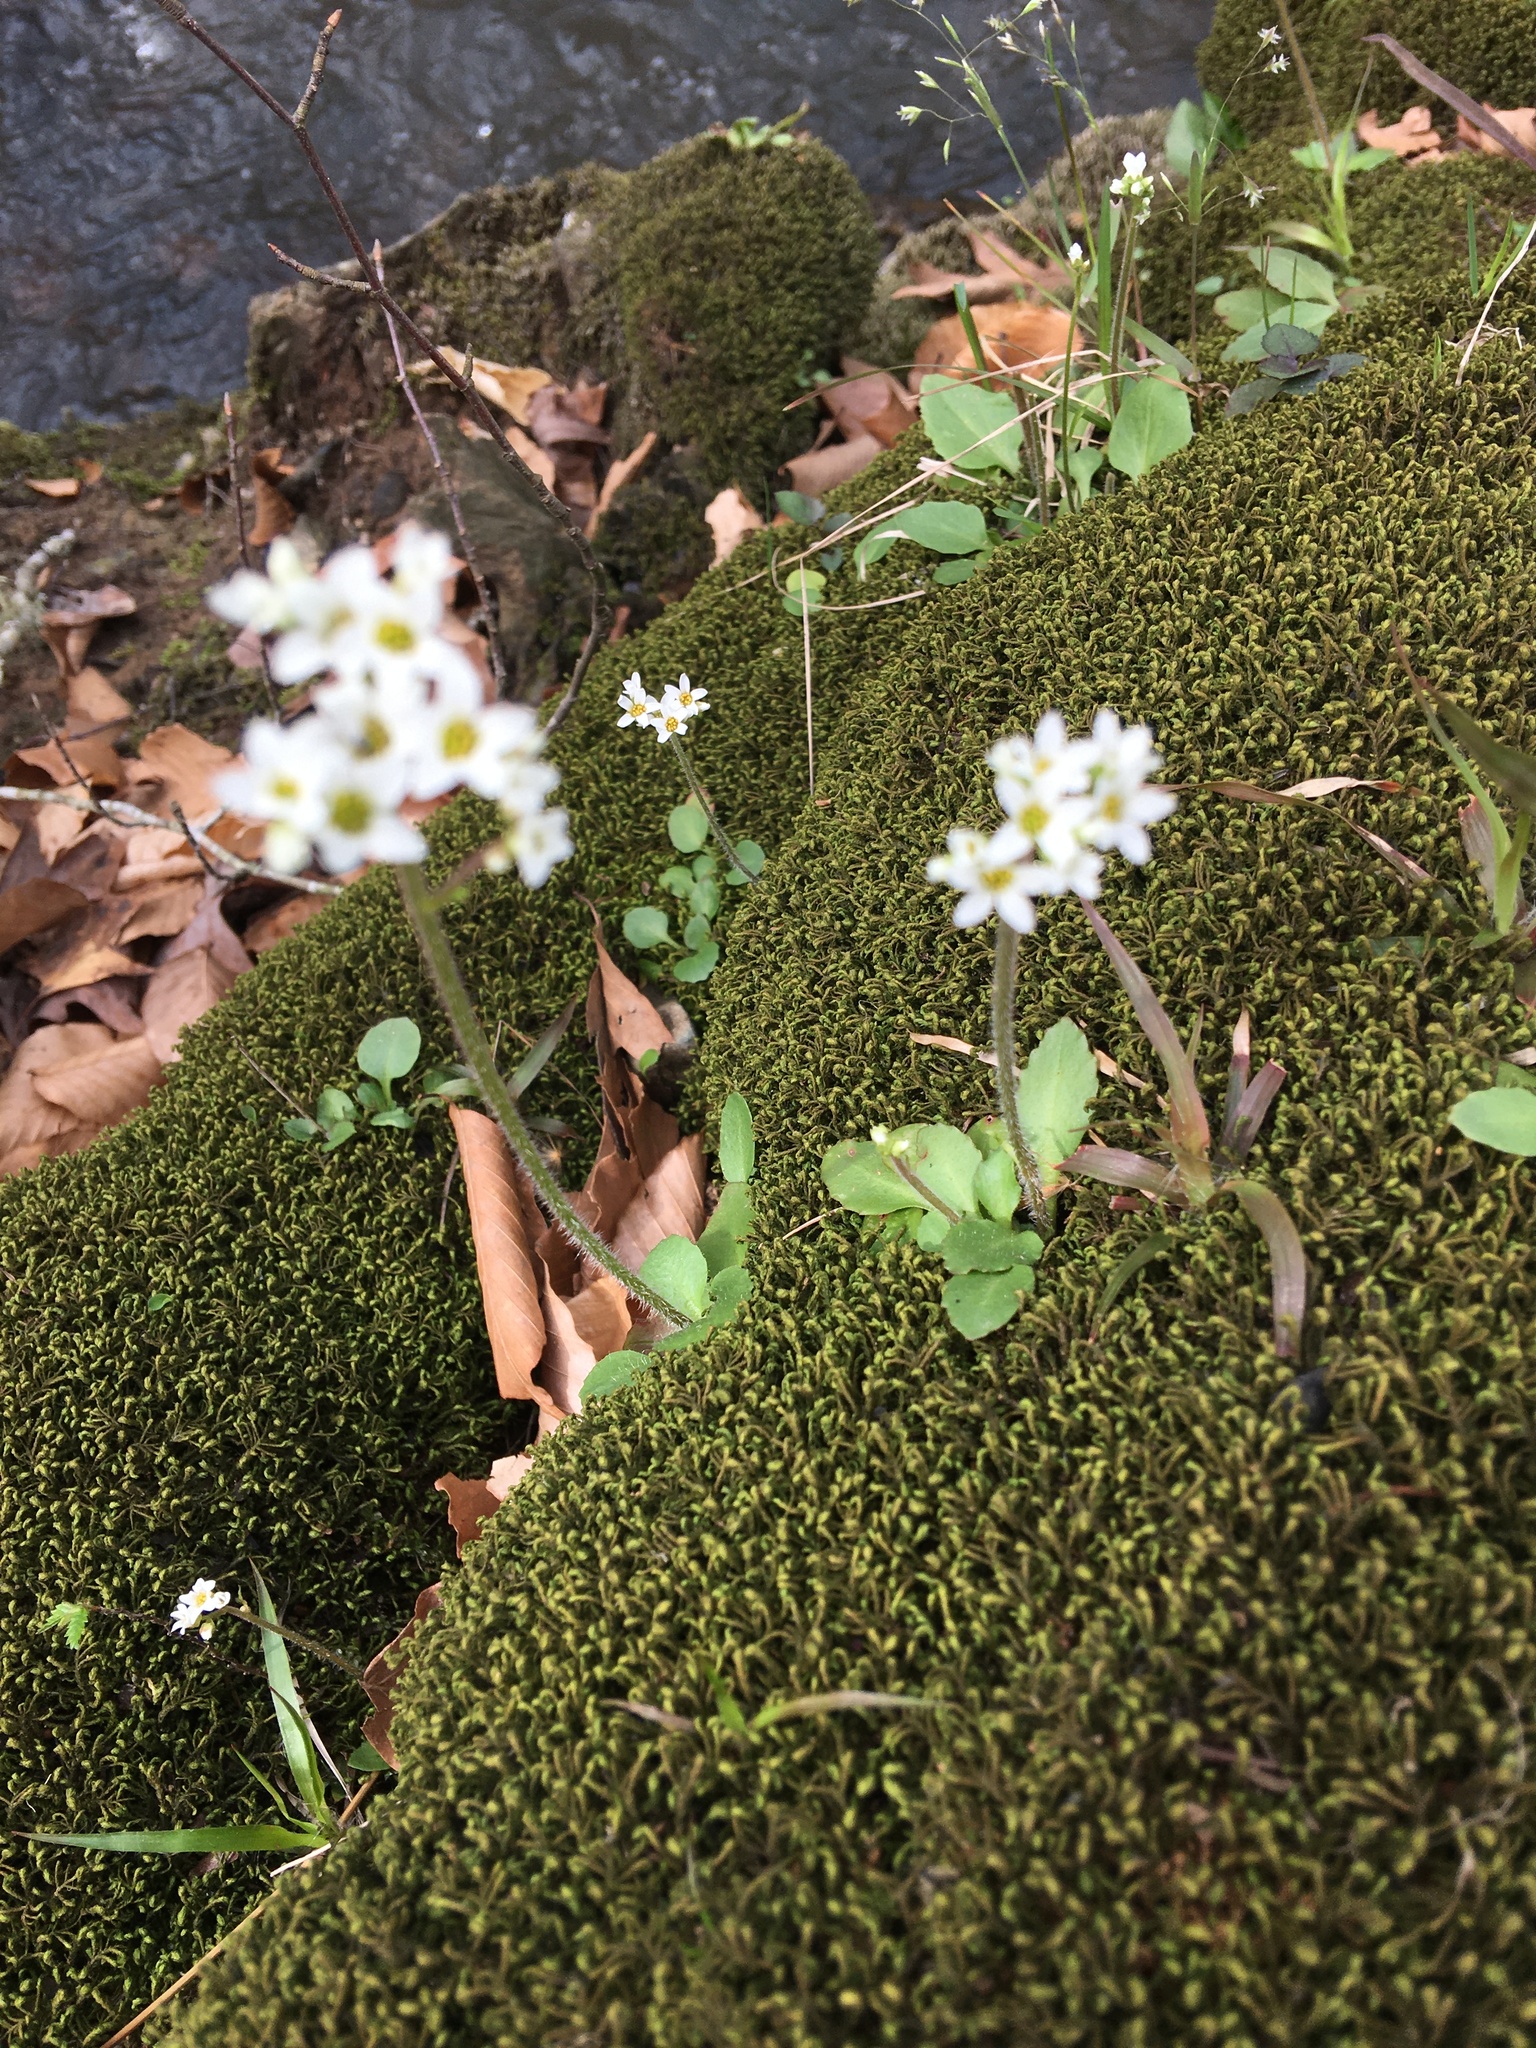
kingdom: Plantae
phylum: Tracheophyta
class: Magnoliopsida
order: Saxifragales
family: Saxifragaceae
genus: Micranthes
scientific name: Micranthes virginiensis
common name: Early saxifrage
